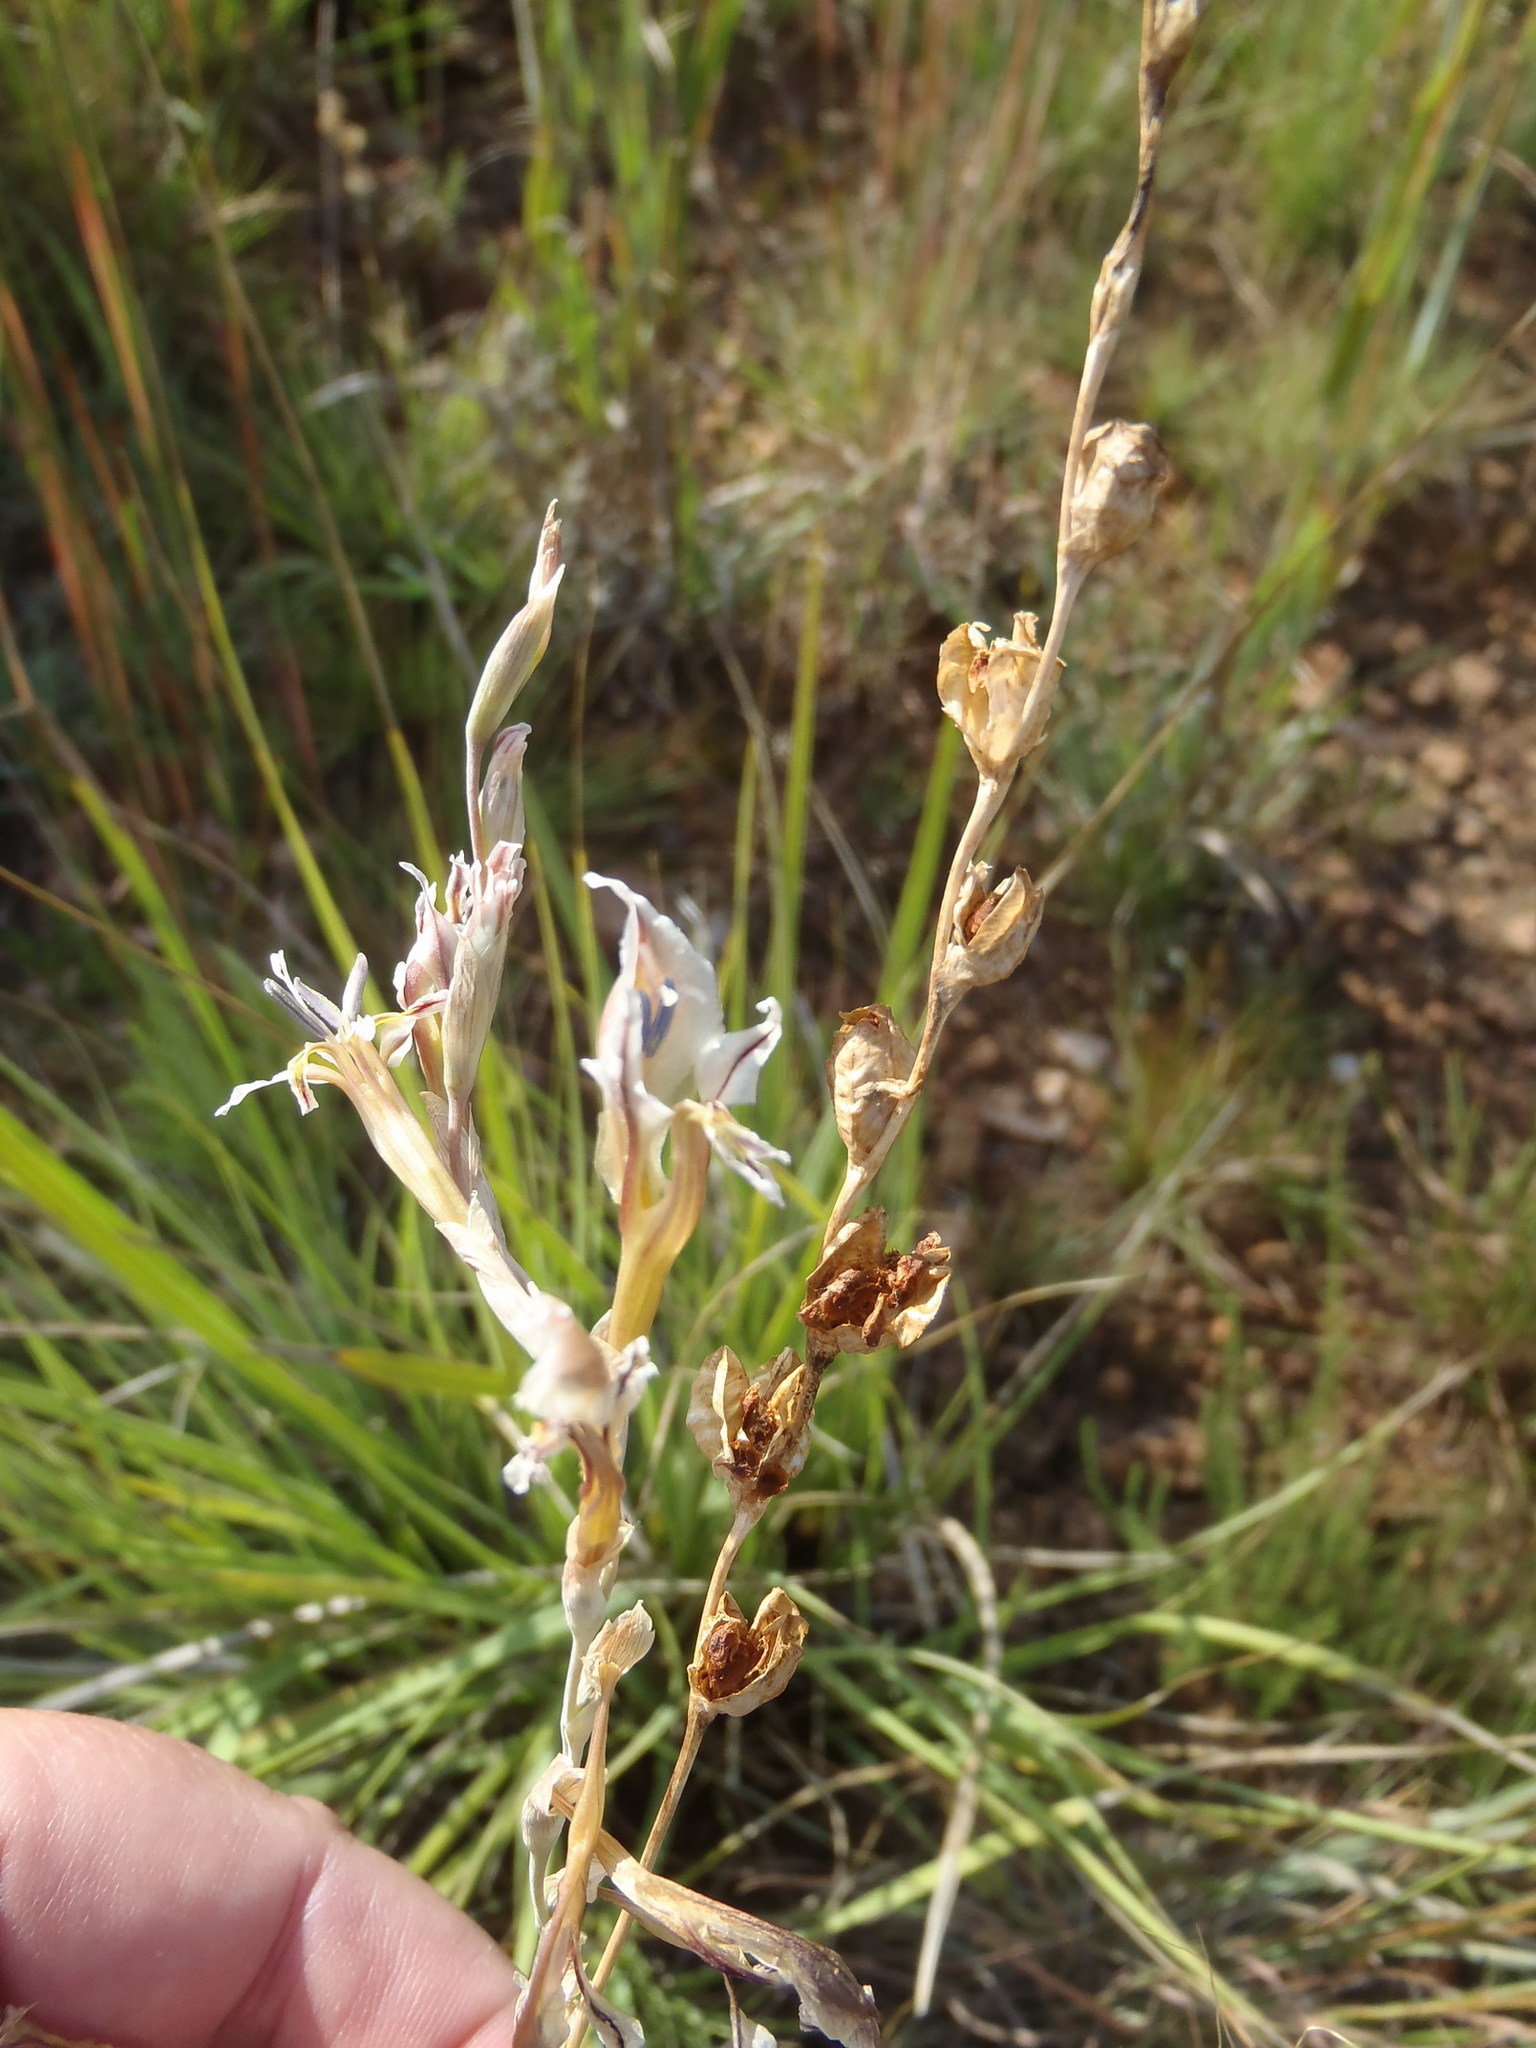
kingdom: Plantae
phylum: Tracheophyta
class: Liliopsida
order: Asparagales
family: Iridaceae
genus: Gladiolus
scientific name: Gladiolus permeabilis
